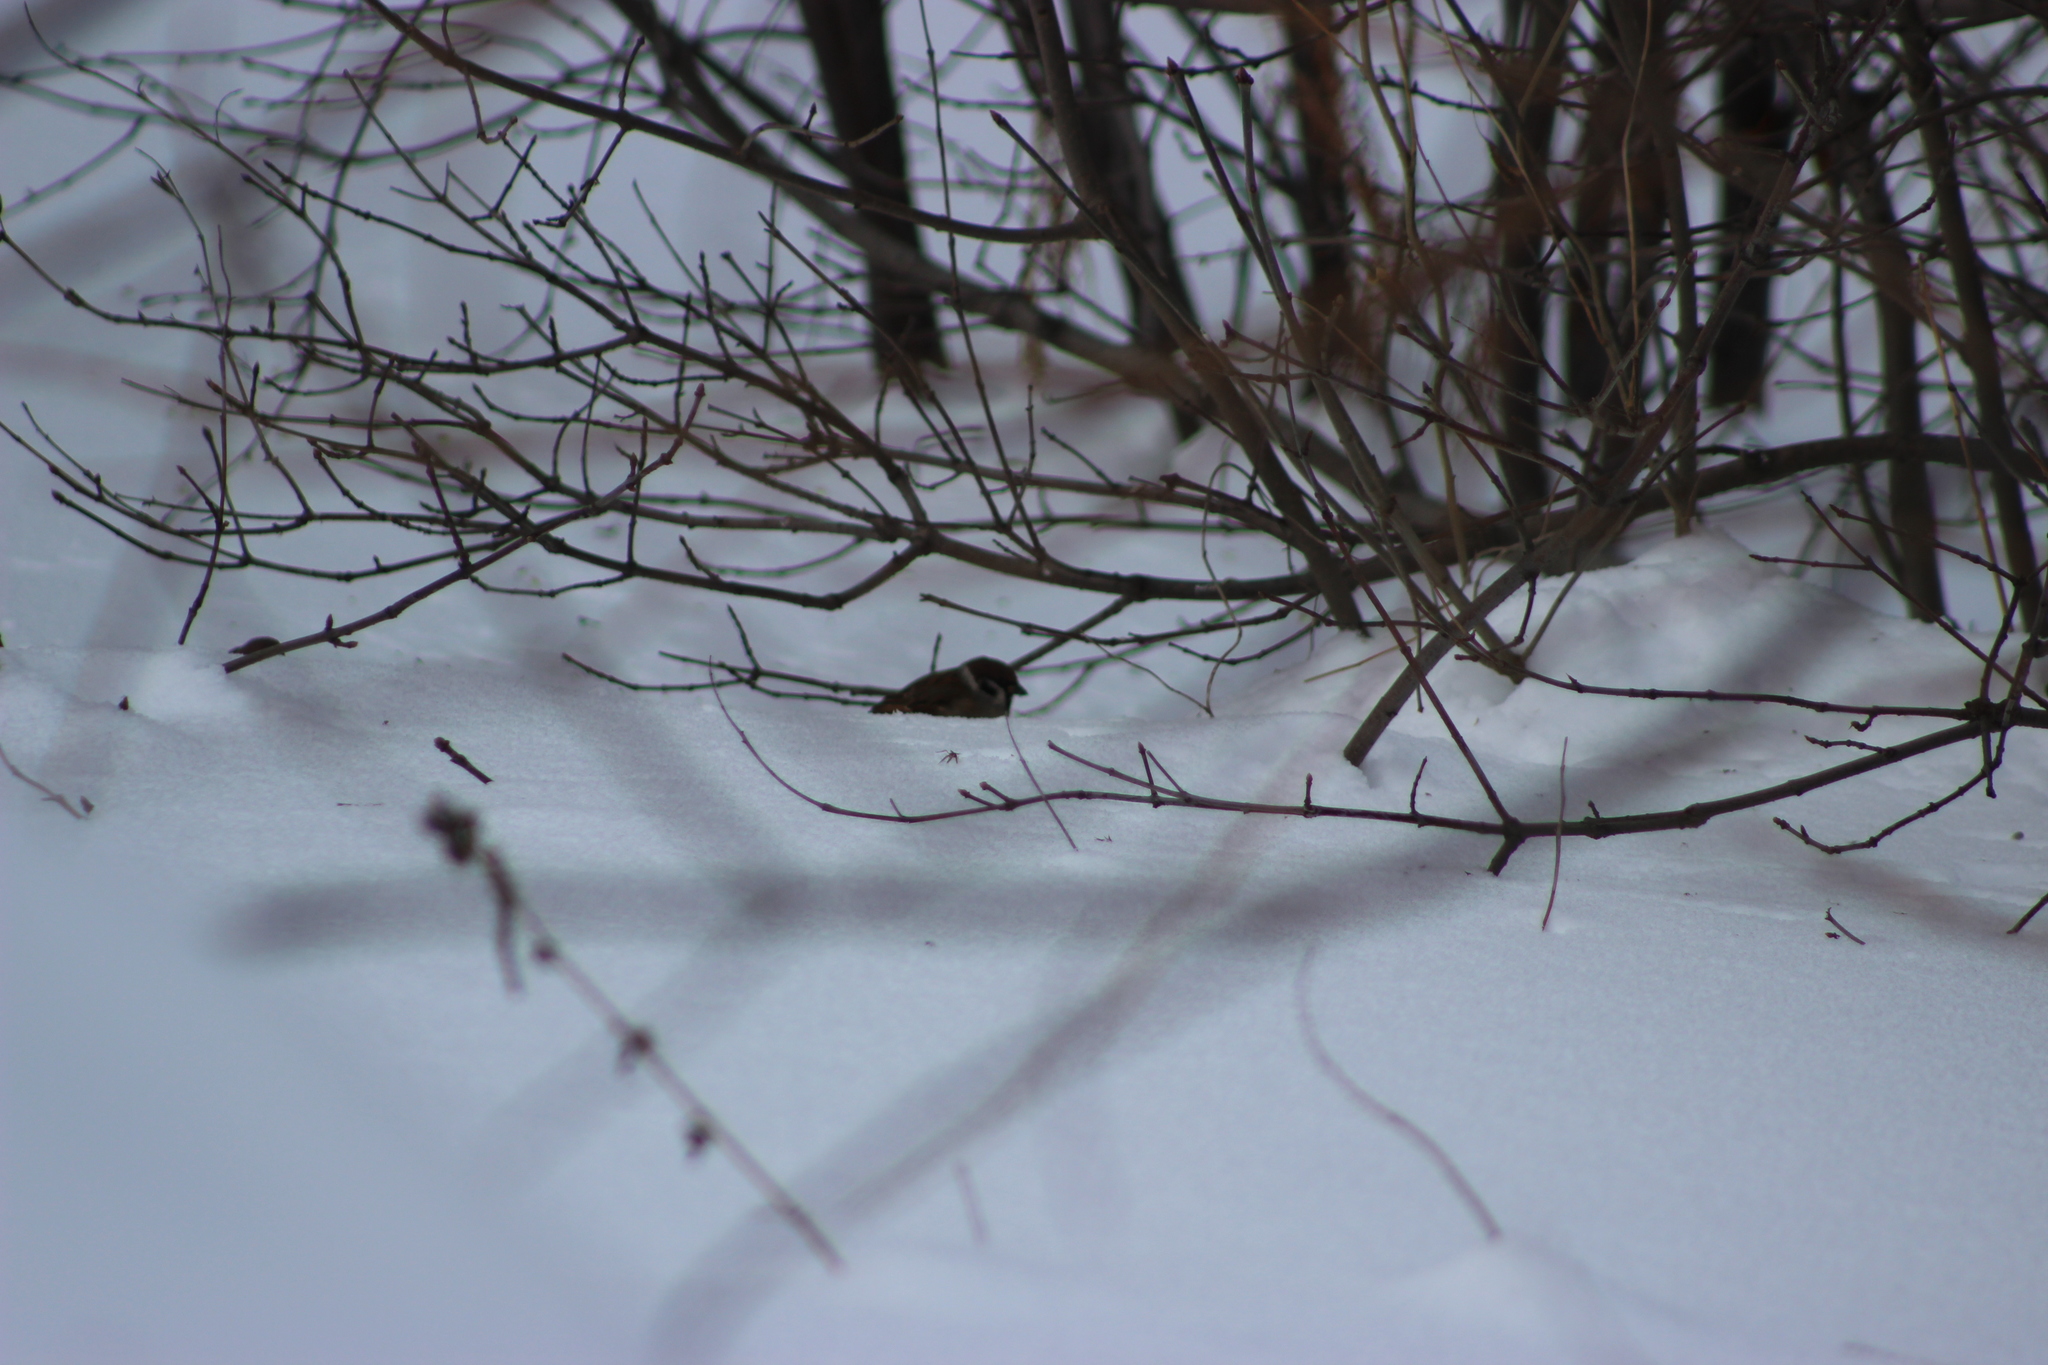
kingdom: Animalia
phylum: Chordata
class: Aves
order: Passeriformes
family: Passeridae
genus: Passer
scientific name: Passer montanus
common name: Eurasian tree sparrow
